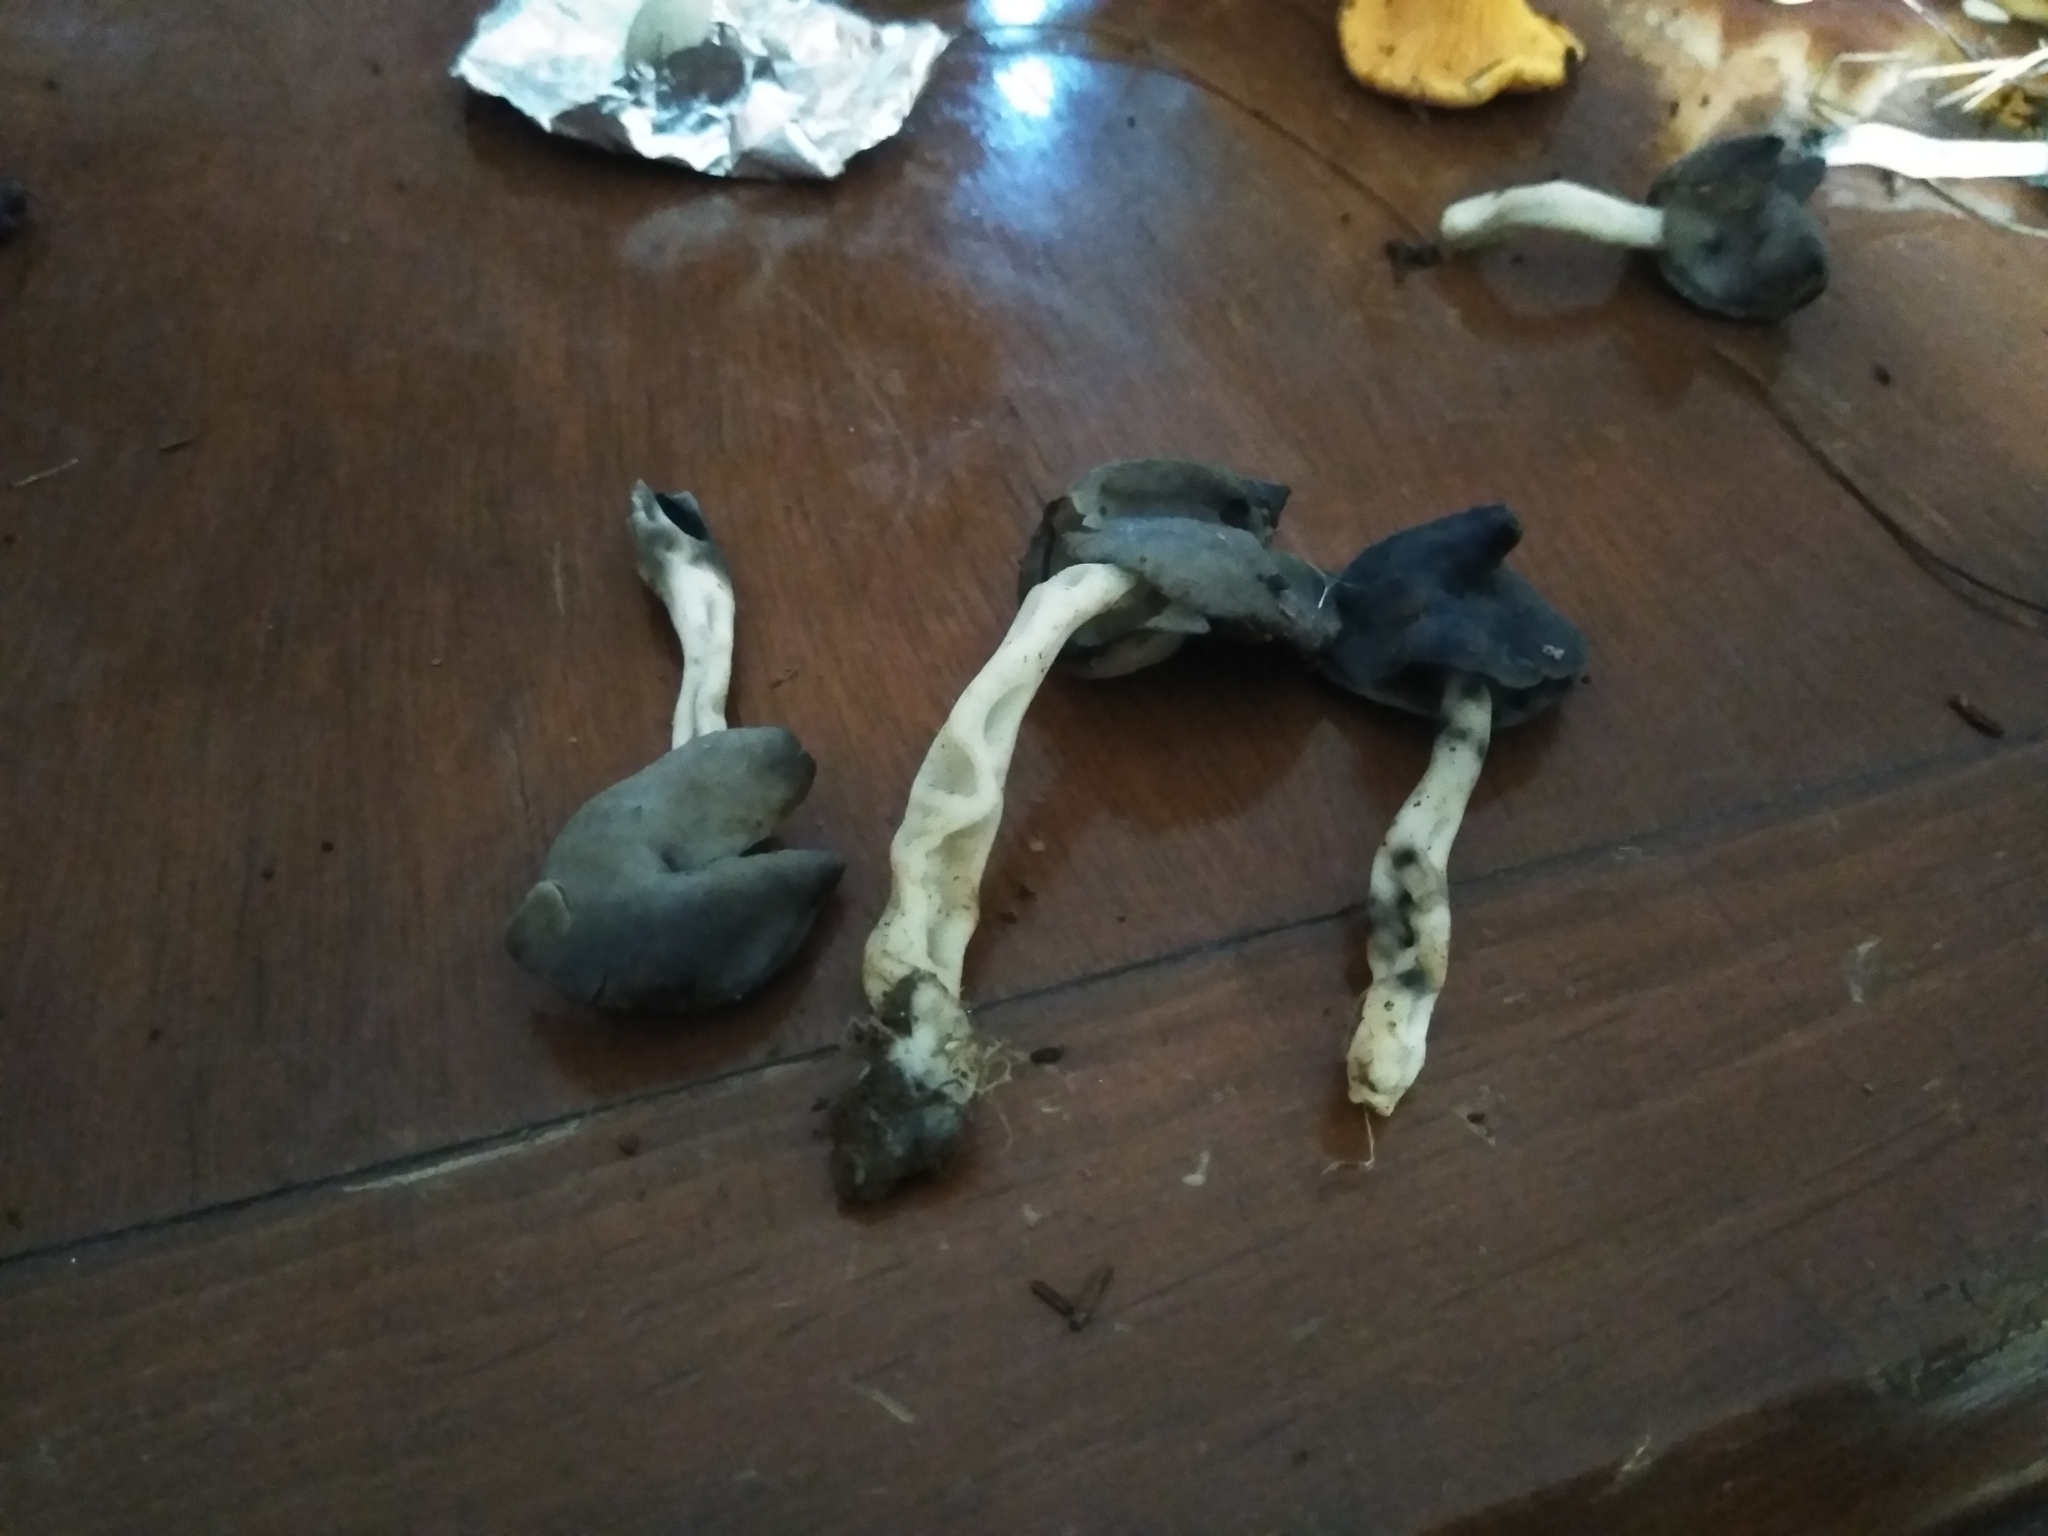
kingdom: Fungi
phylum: Ascomycota
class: Pezizomycetes
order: Pezizales
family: Helvellaceae
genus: Helvella
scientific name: Helvella compressa
